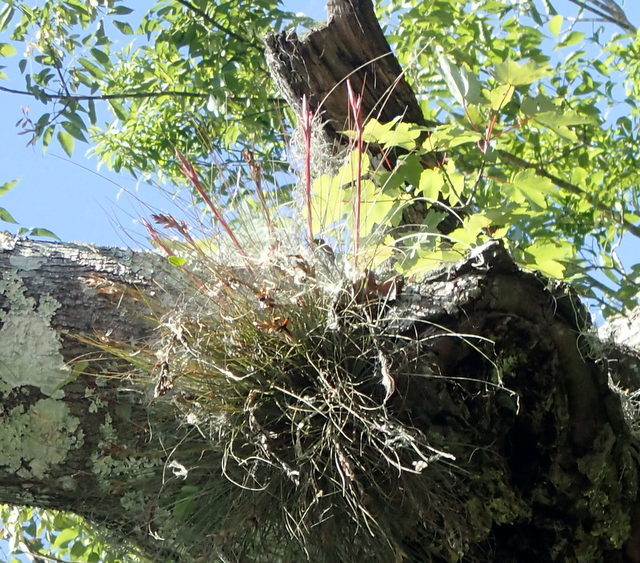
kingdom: Plantae
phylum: Tracheophyta
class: Liliopsida
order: Poales
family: Bromeliaceae
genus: Tillandsia
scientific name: Tillandsia bartramii
